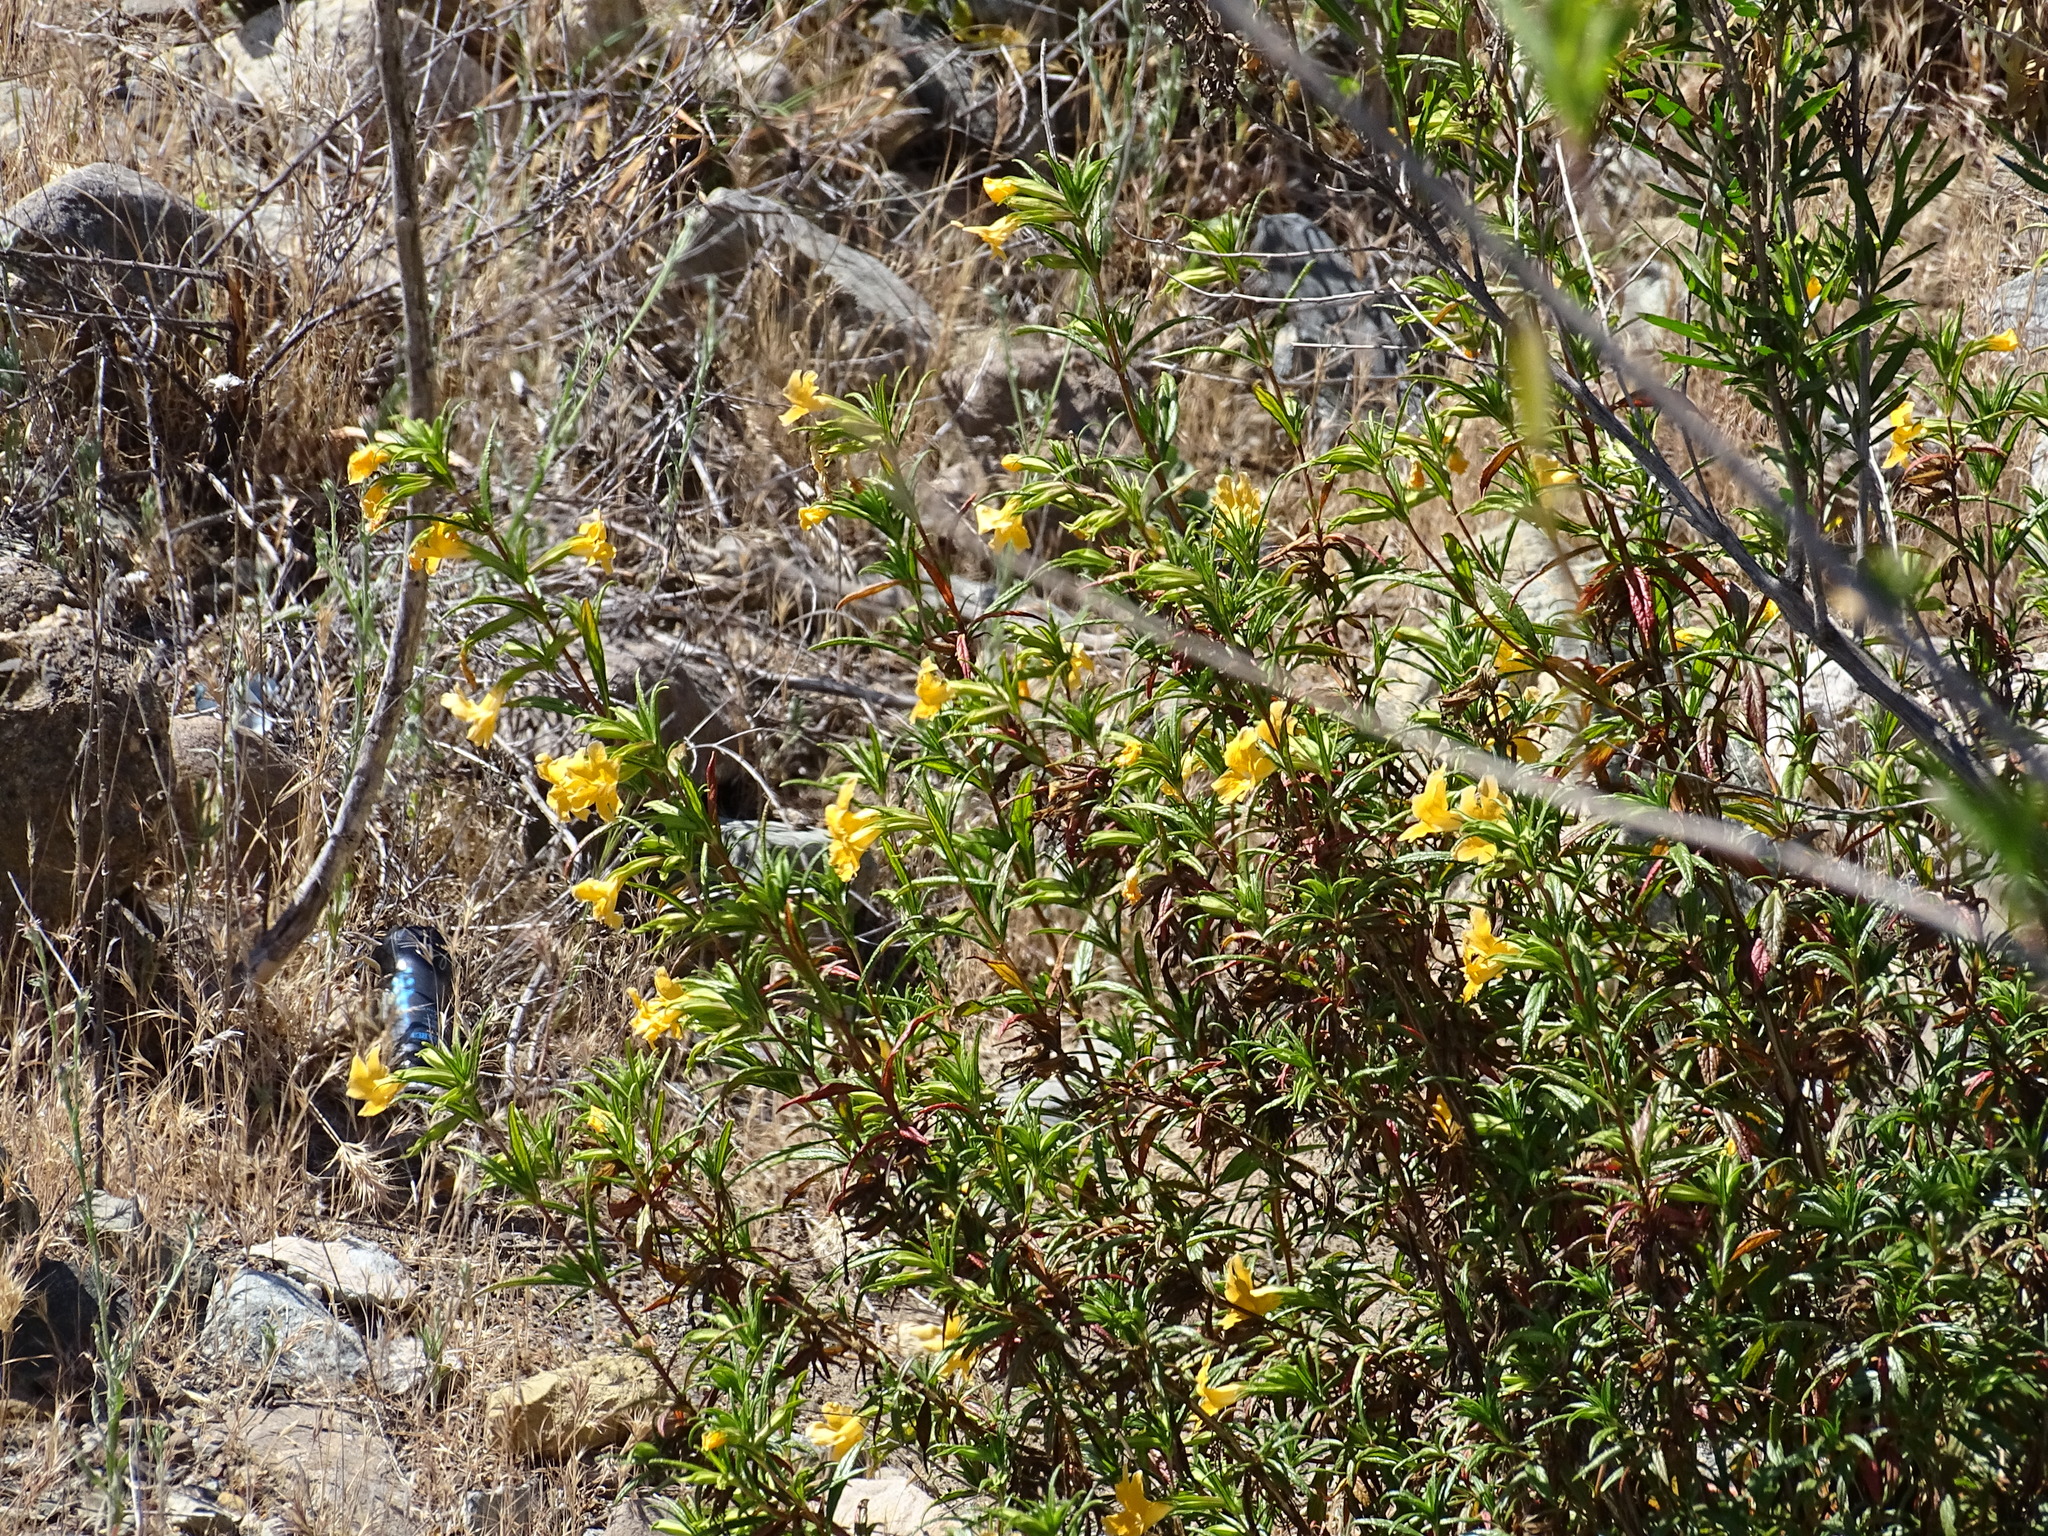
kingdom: Plantae
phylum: Tracheophyta
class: Magnoliopsida
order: Lamiales
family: Phrymaceae
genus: Diplacus
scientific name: Diplacus australis
